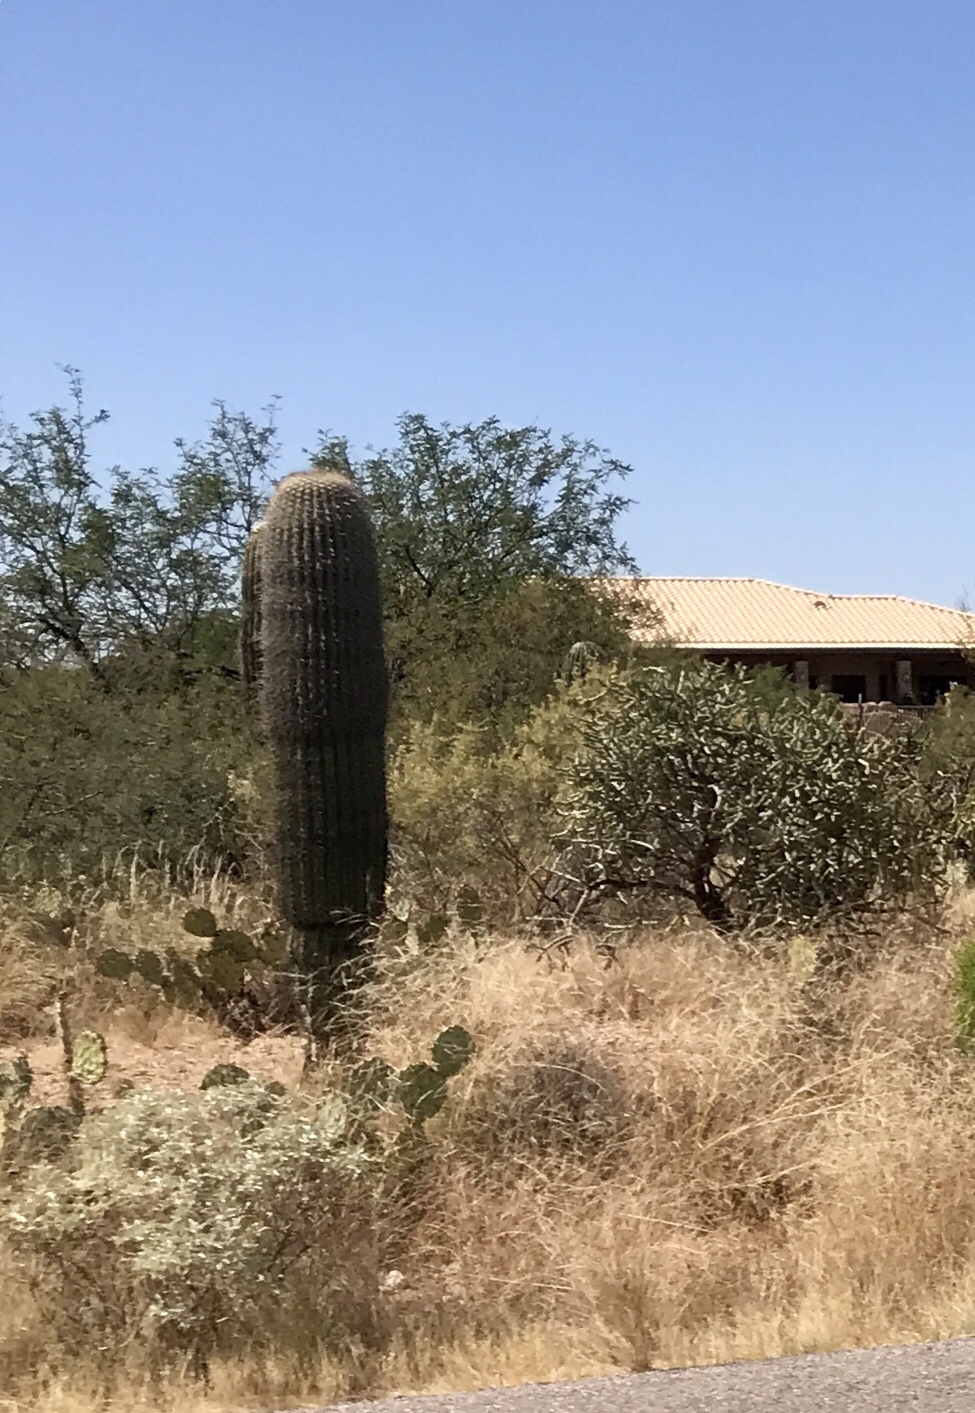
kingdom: Plantae
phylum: Tracheophyta
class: Magnoliopsida
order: Caryophyllales
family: Cactaceae
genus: Carnegiea
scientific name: Carnegiea gigantea
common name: Saguaro
